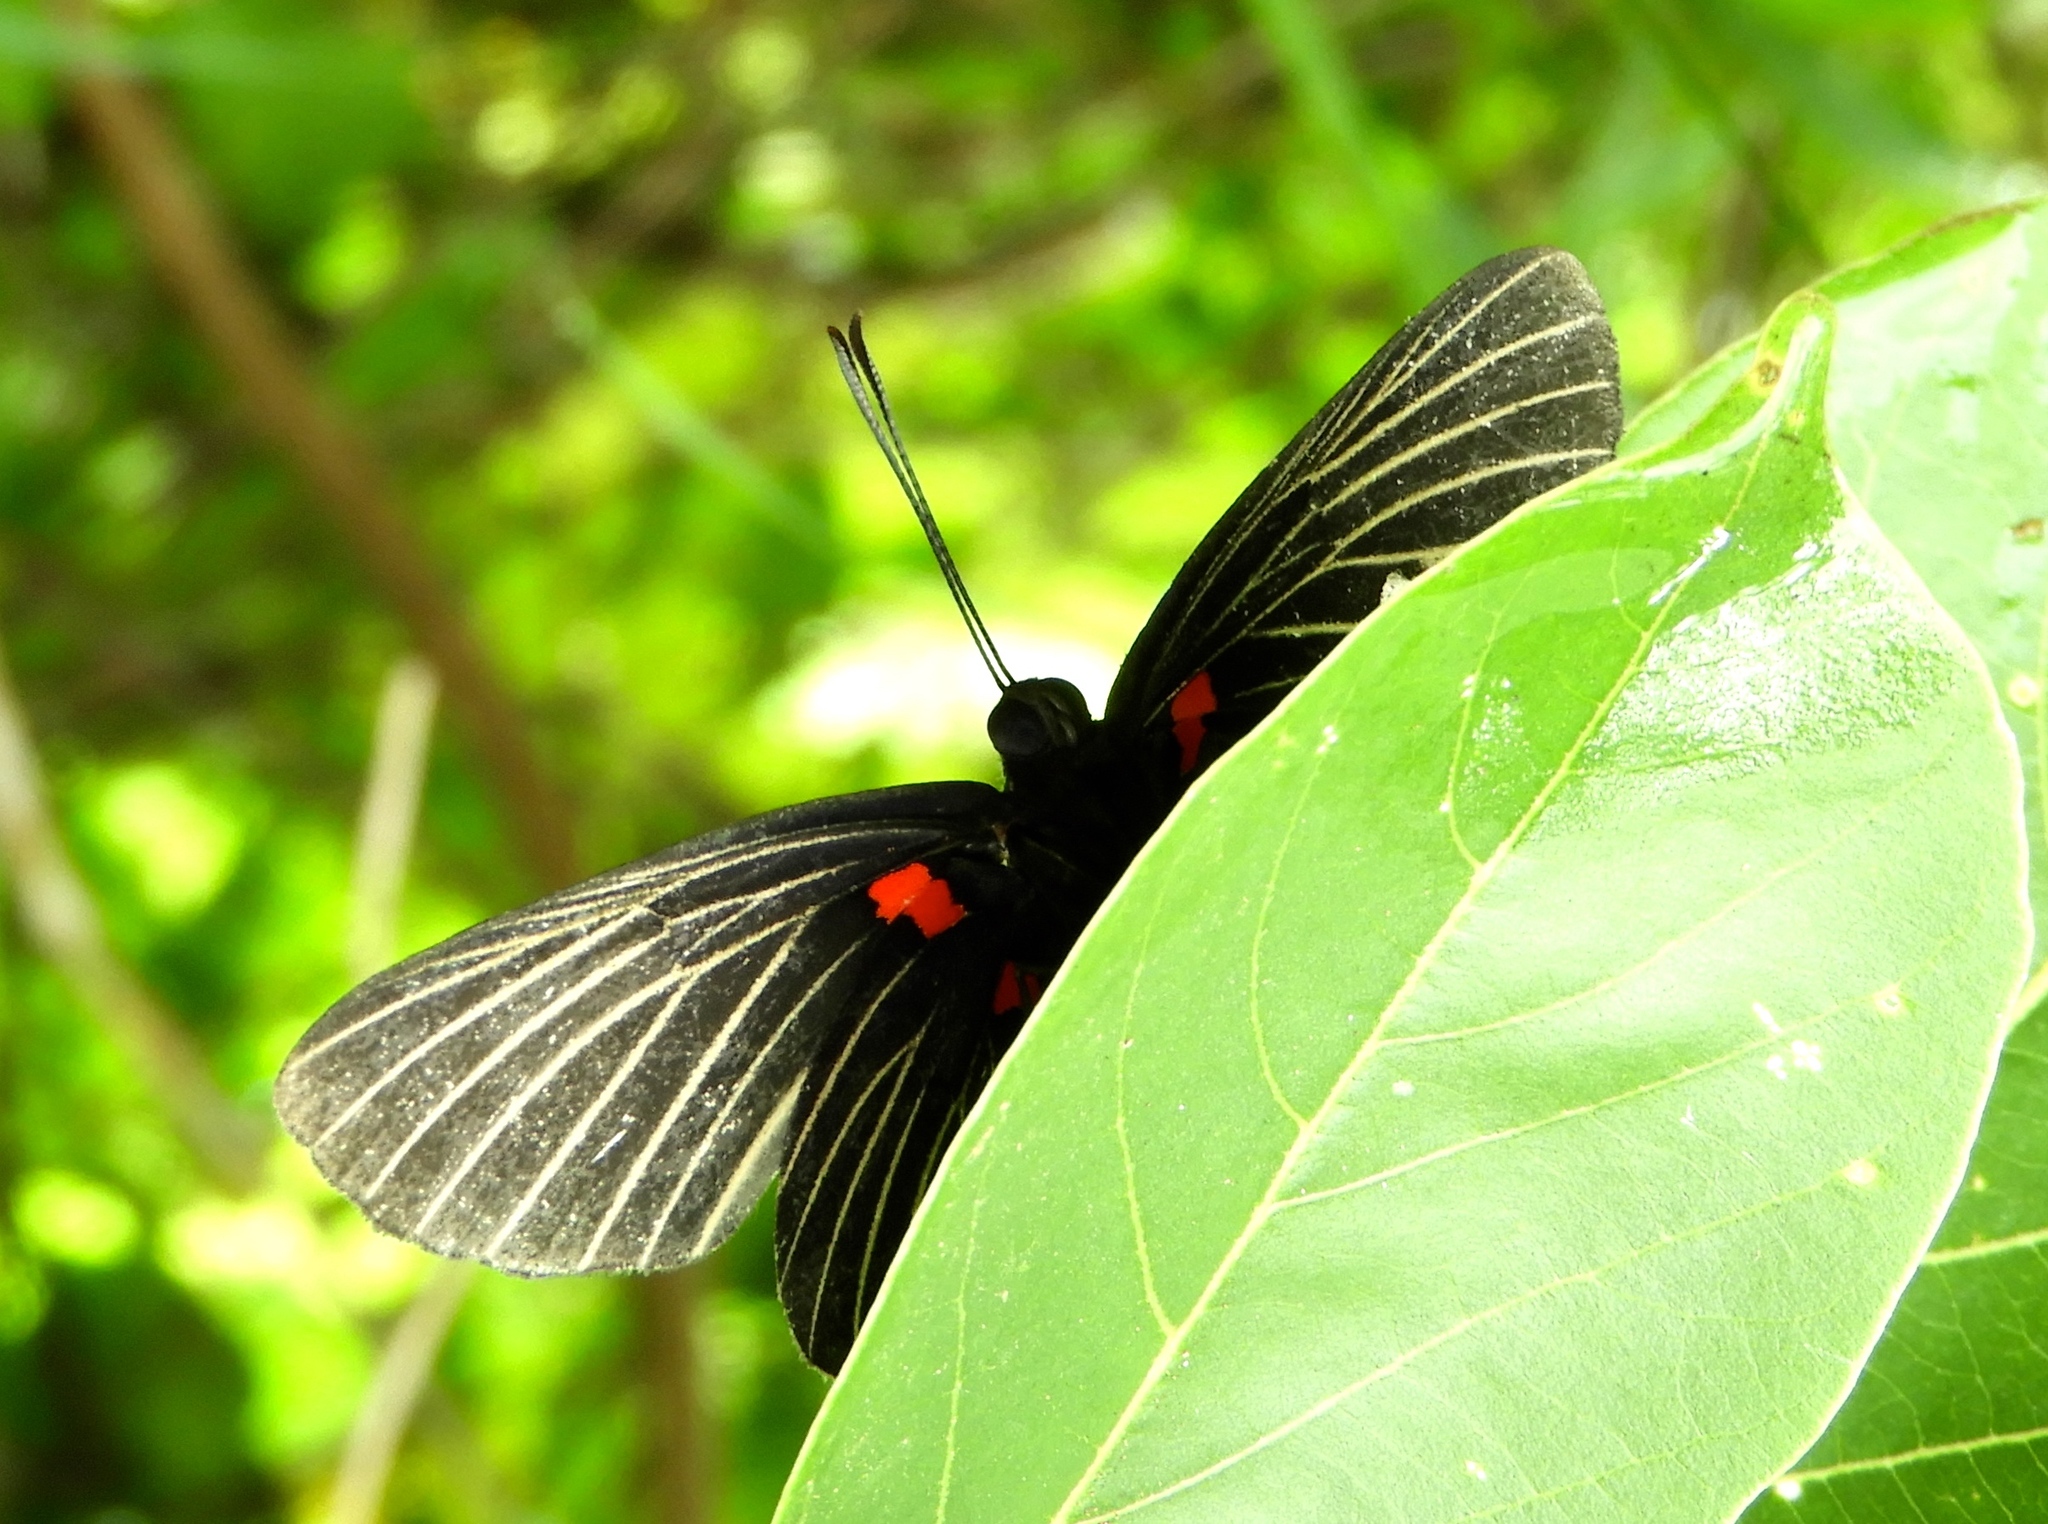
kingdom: Animalia
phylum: Arthropoda
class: Insecta
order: Lepidoptera
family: Lycaenidae
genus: Melanis
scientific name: Melanis
